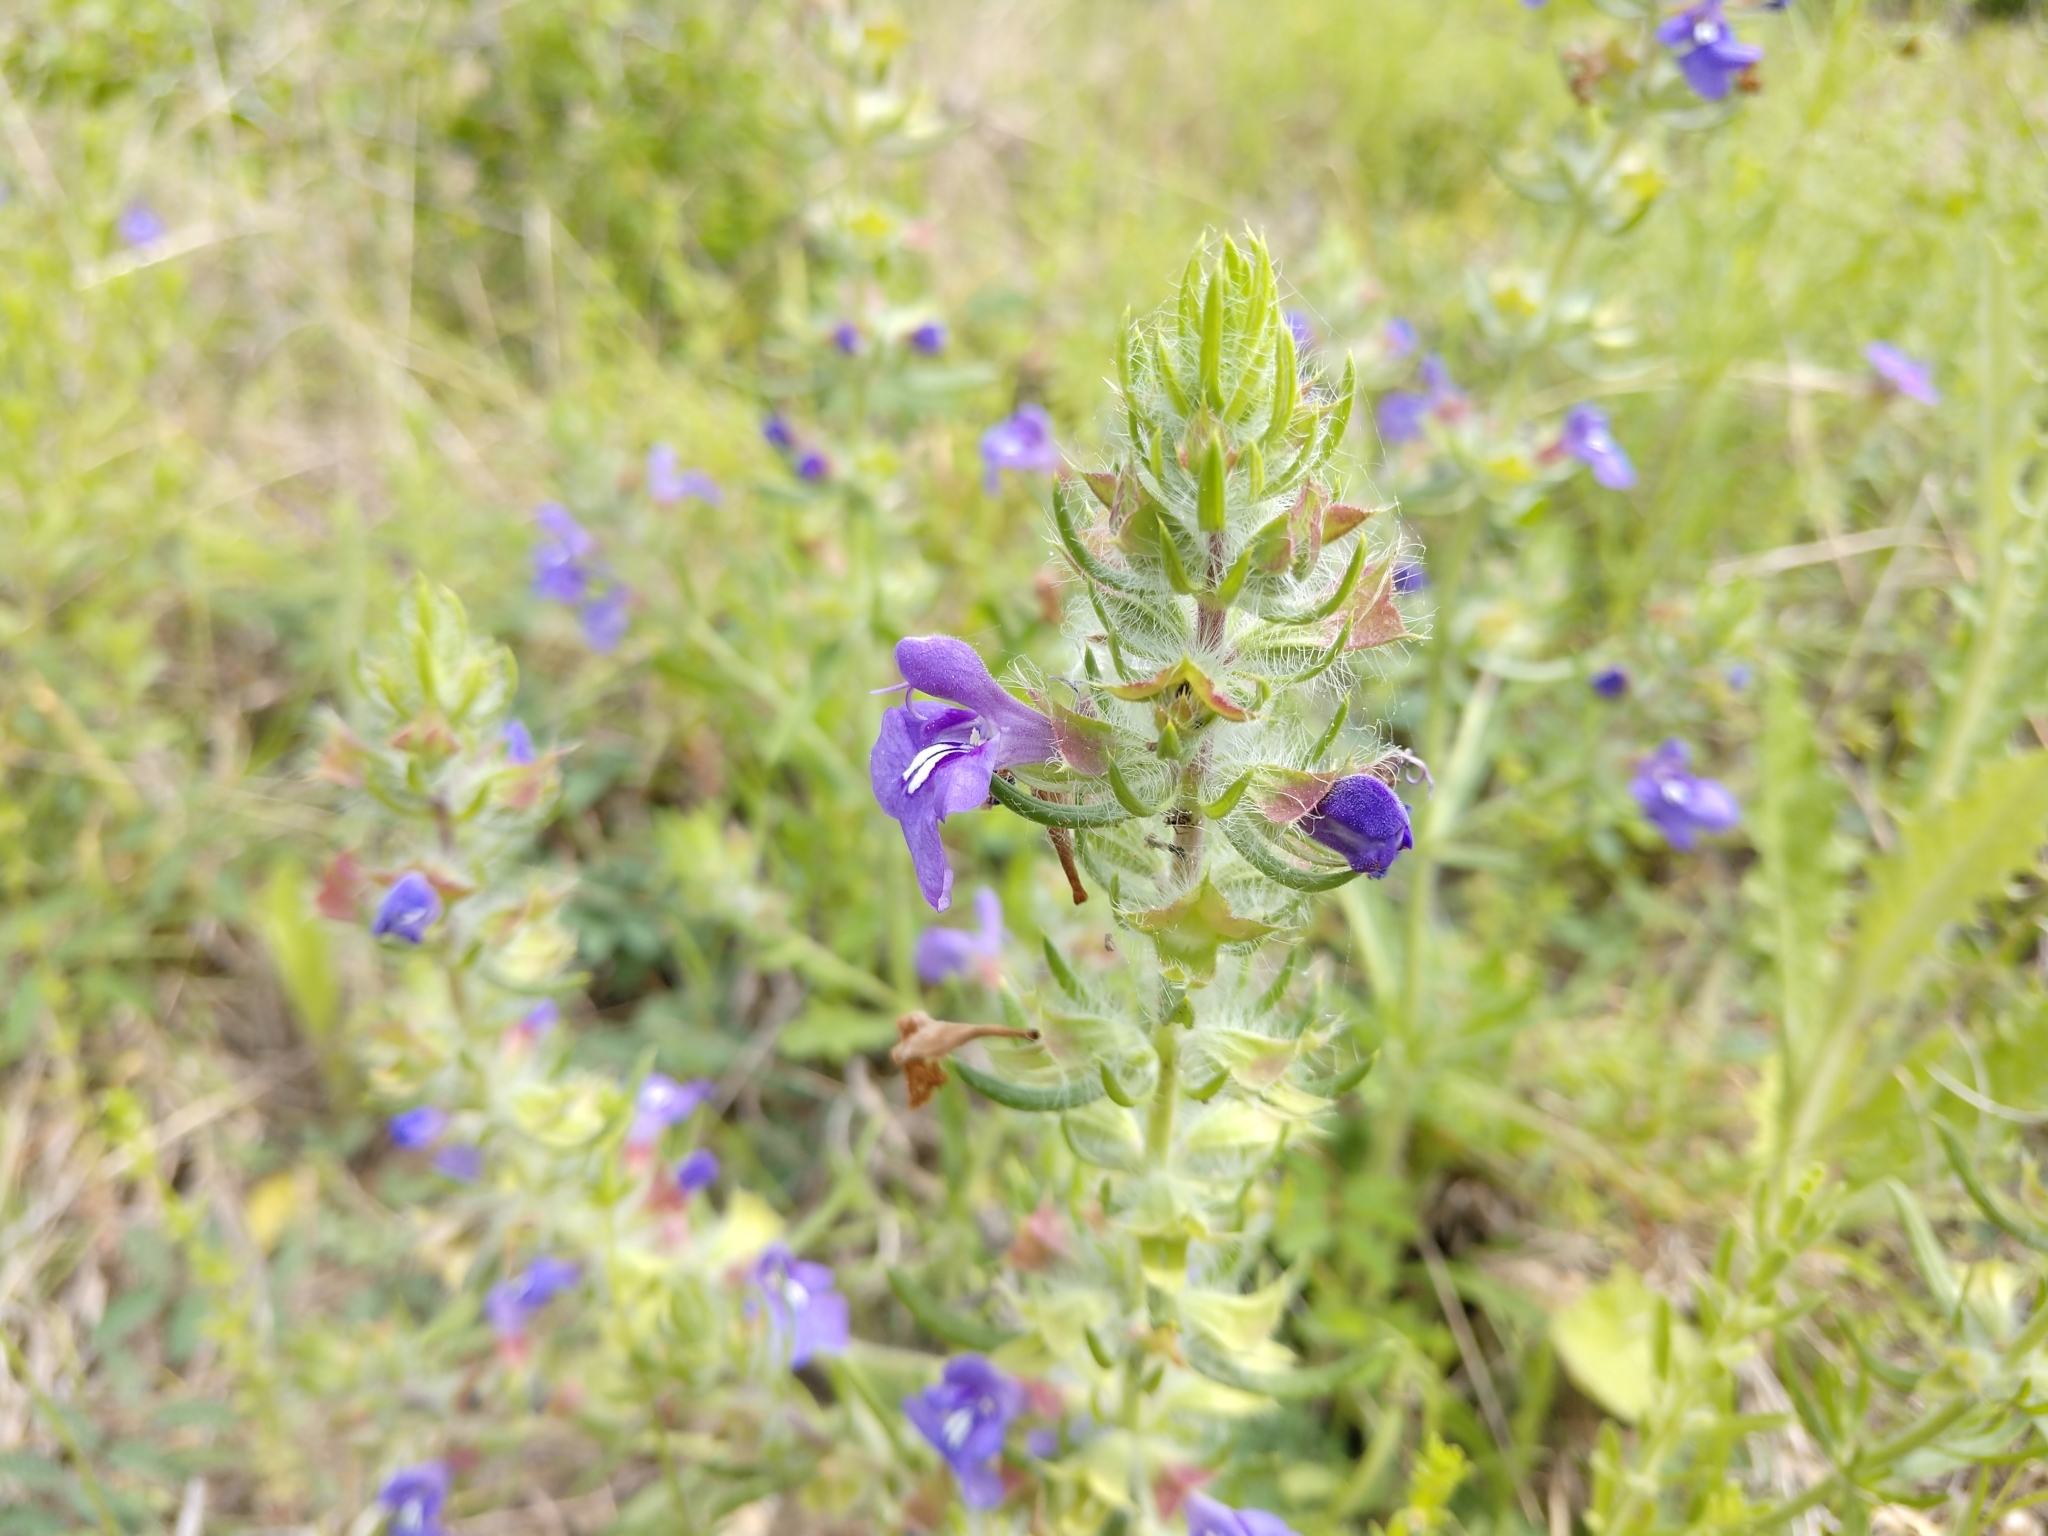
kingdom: Plantae
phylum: Tracheophyta
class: Magnoliopsida
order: Lamiales
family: Lamiaceae
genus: Salvia
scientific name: Salvia texana
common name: Texas sage
